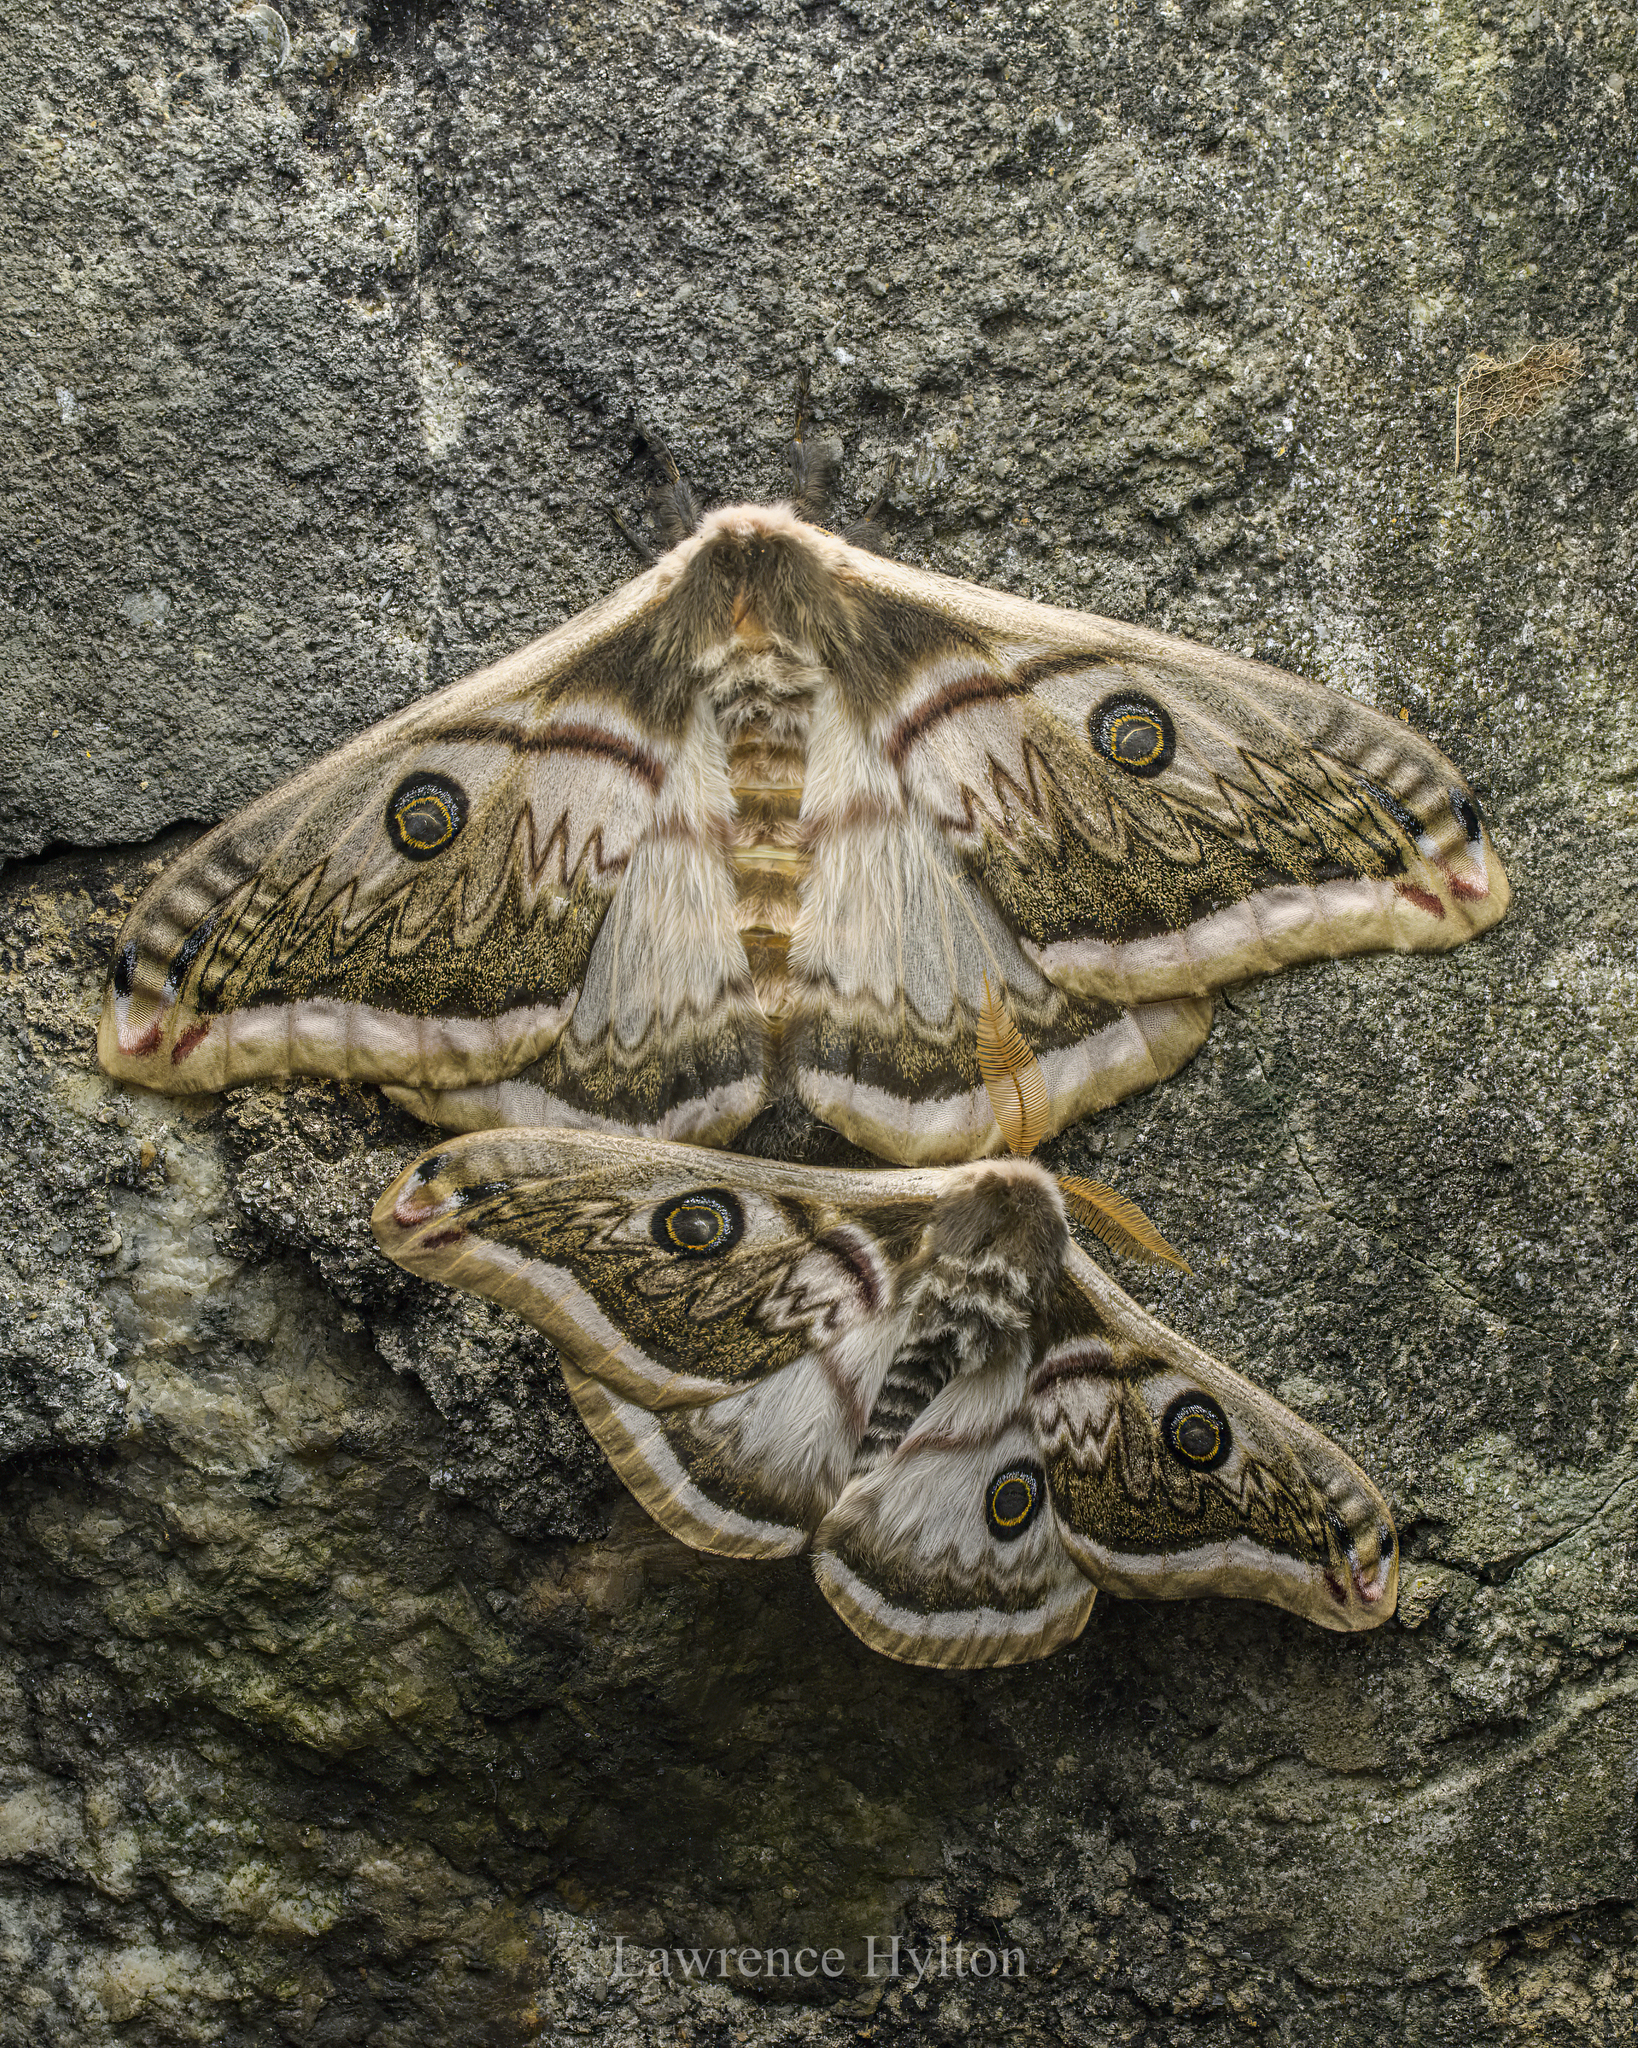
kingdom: Animalia
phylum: Arthropoda
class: Insecta
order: Lepidoptera
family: Saturniidae
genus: Saturnia
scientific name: Saturnia pyretorum
